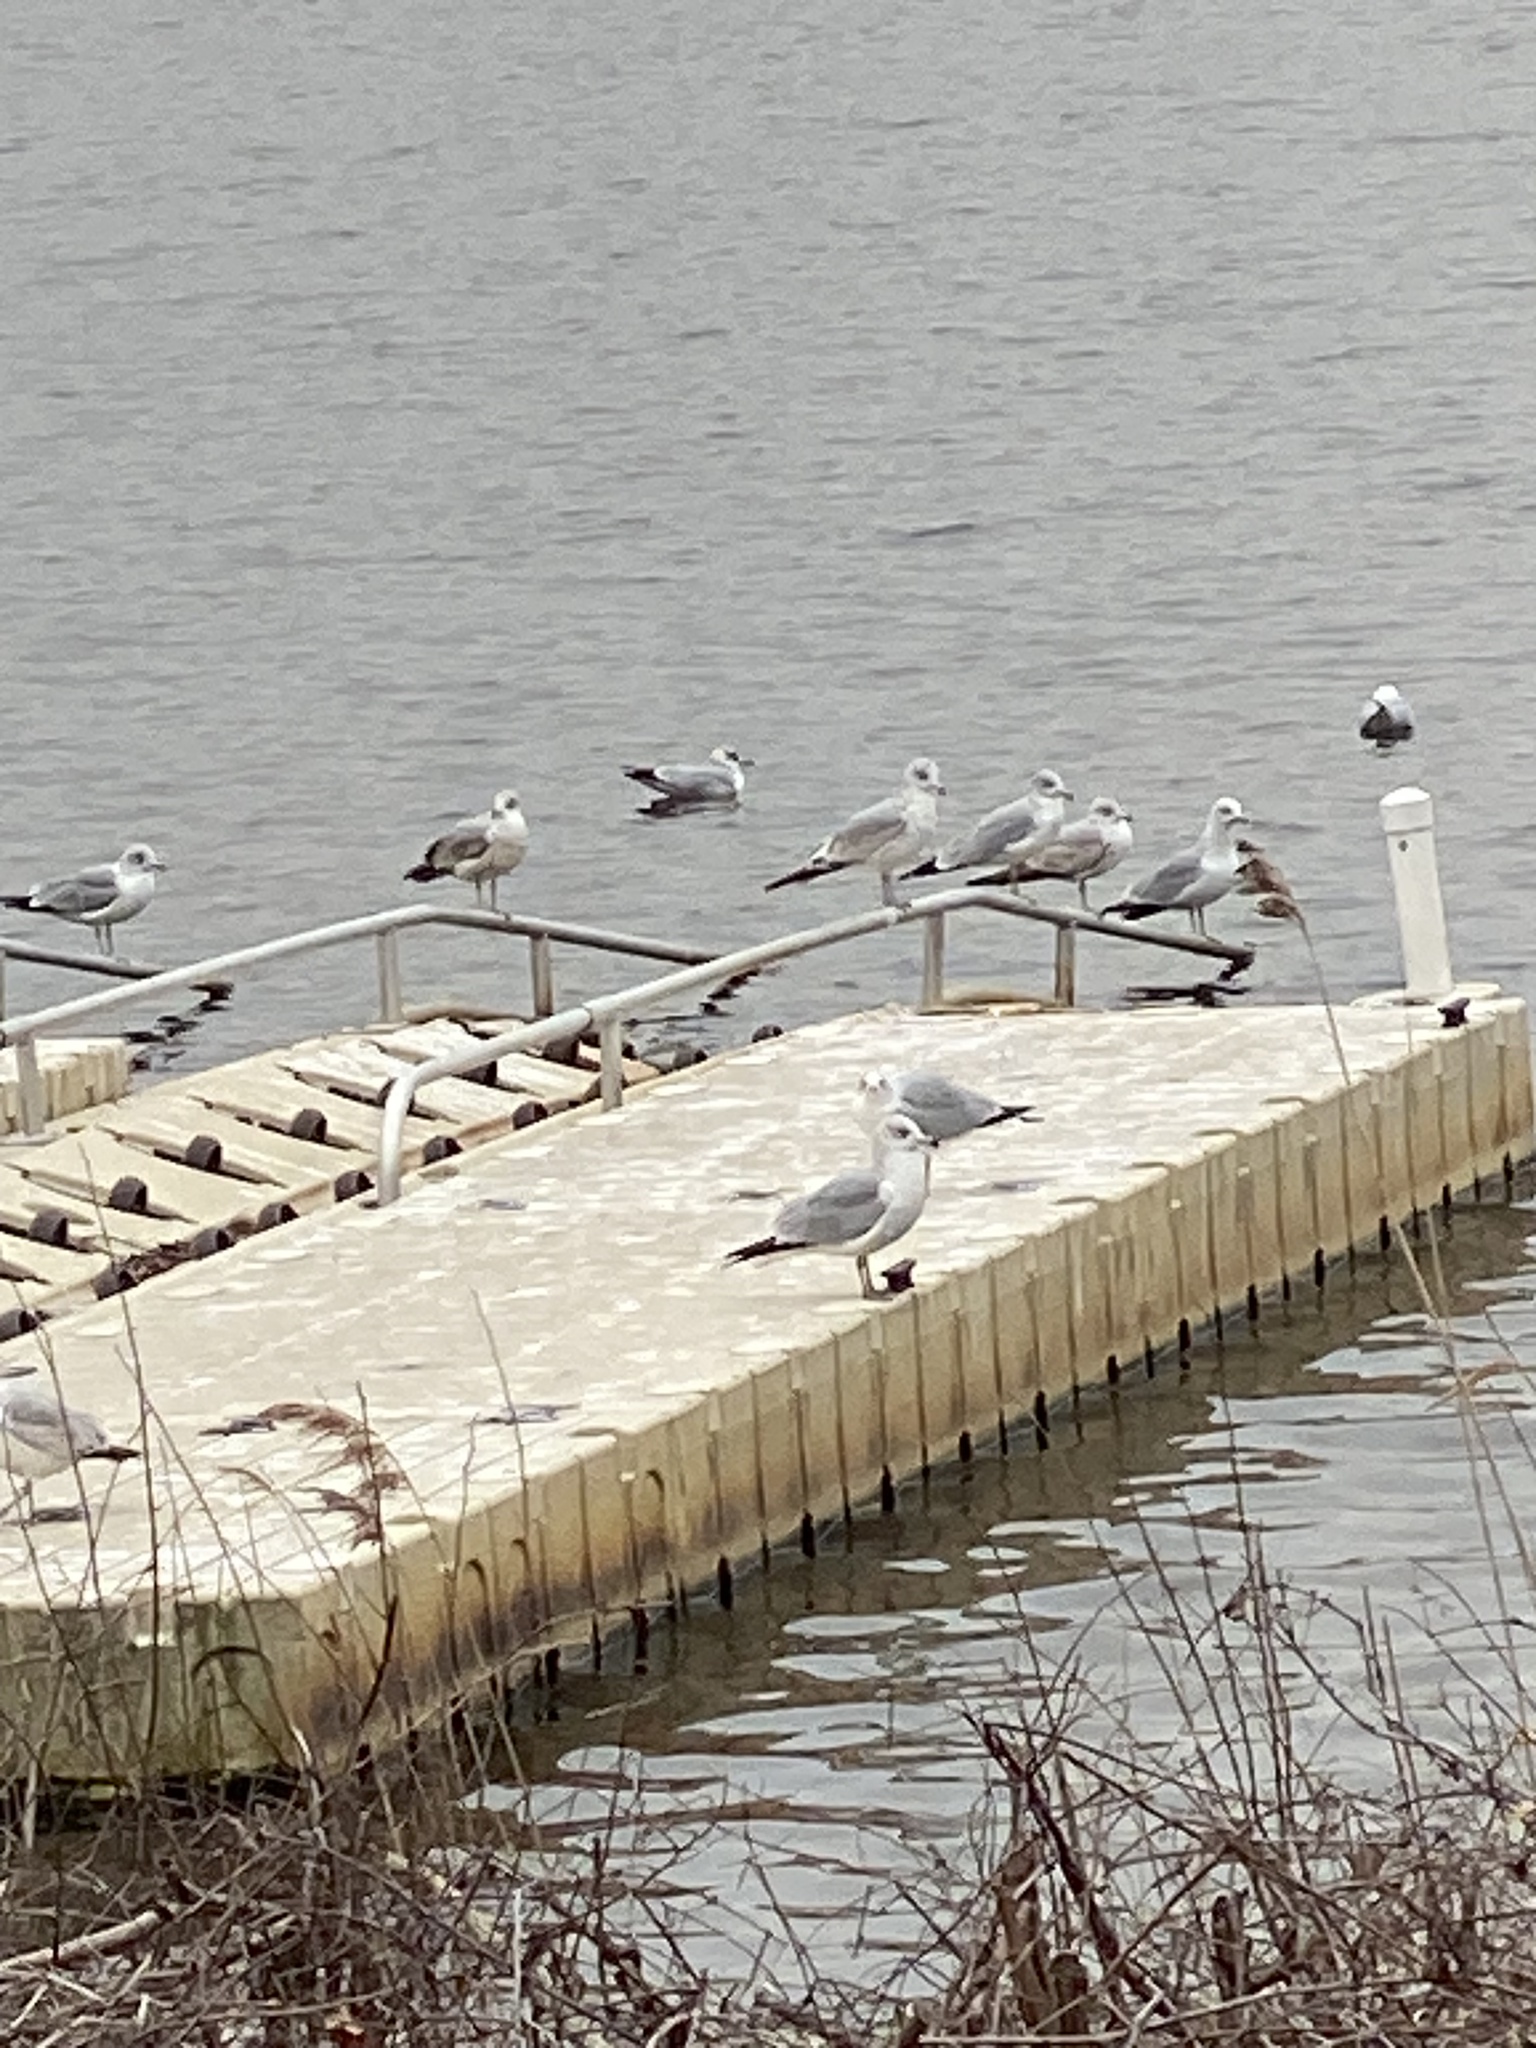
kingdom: Animalia
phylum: Chordata
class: Aves
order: Charadriiformes
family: Laridae
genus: Larus
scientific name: Larus delawarensis
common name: Ring-billed gull
